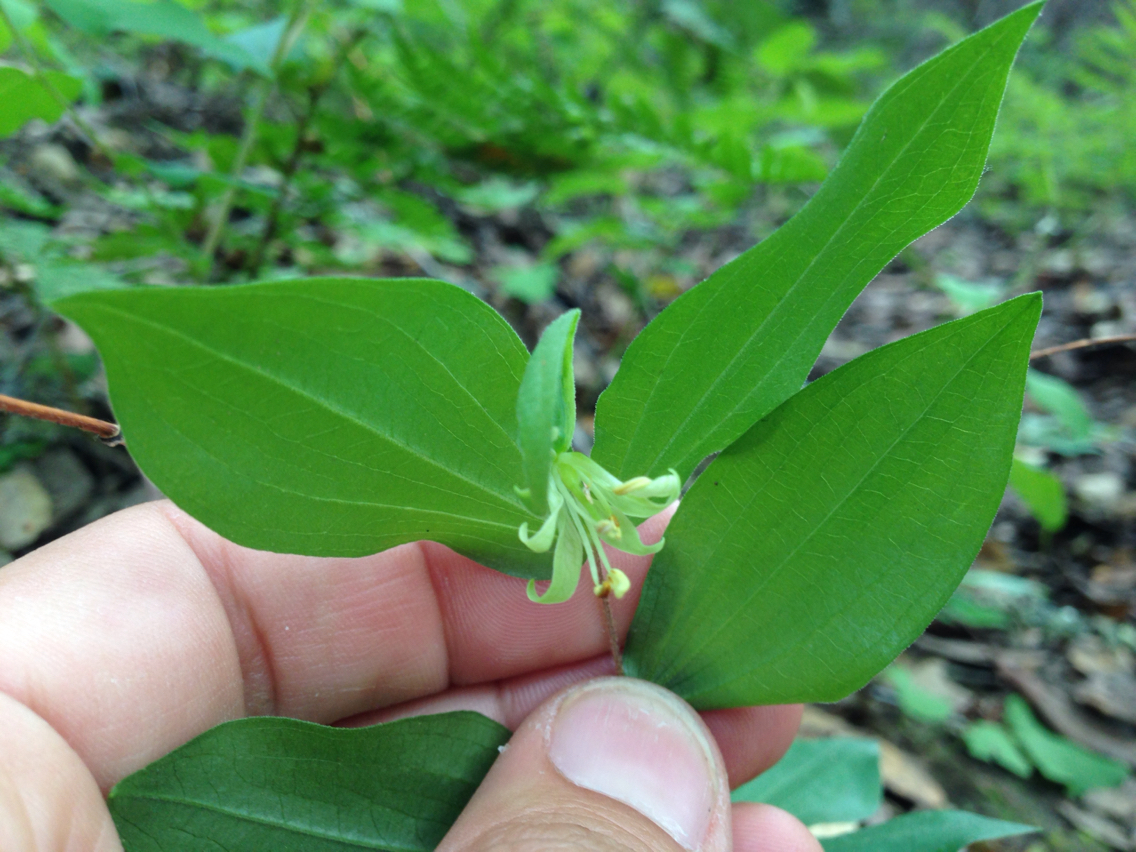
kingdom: Plantae
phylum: Tracheophyta
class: Liliopsida
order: Liliales
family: Liliaceae
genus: Prosartes
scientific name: Prosartes hookeri
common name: Fairy-bells
